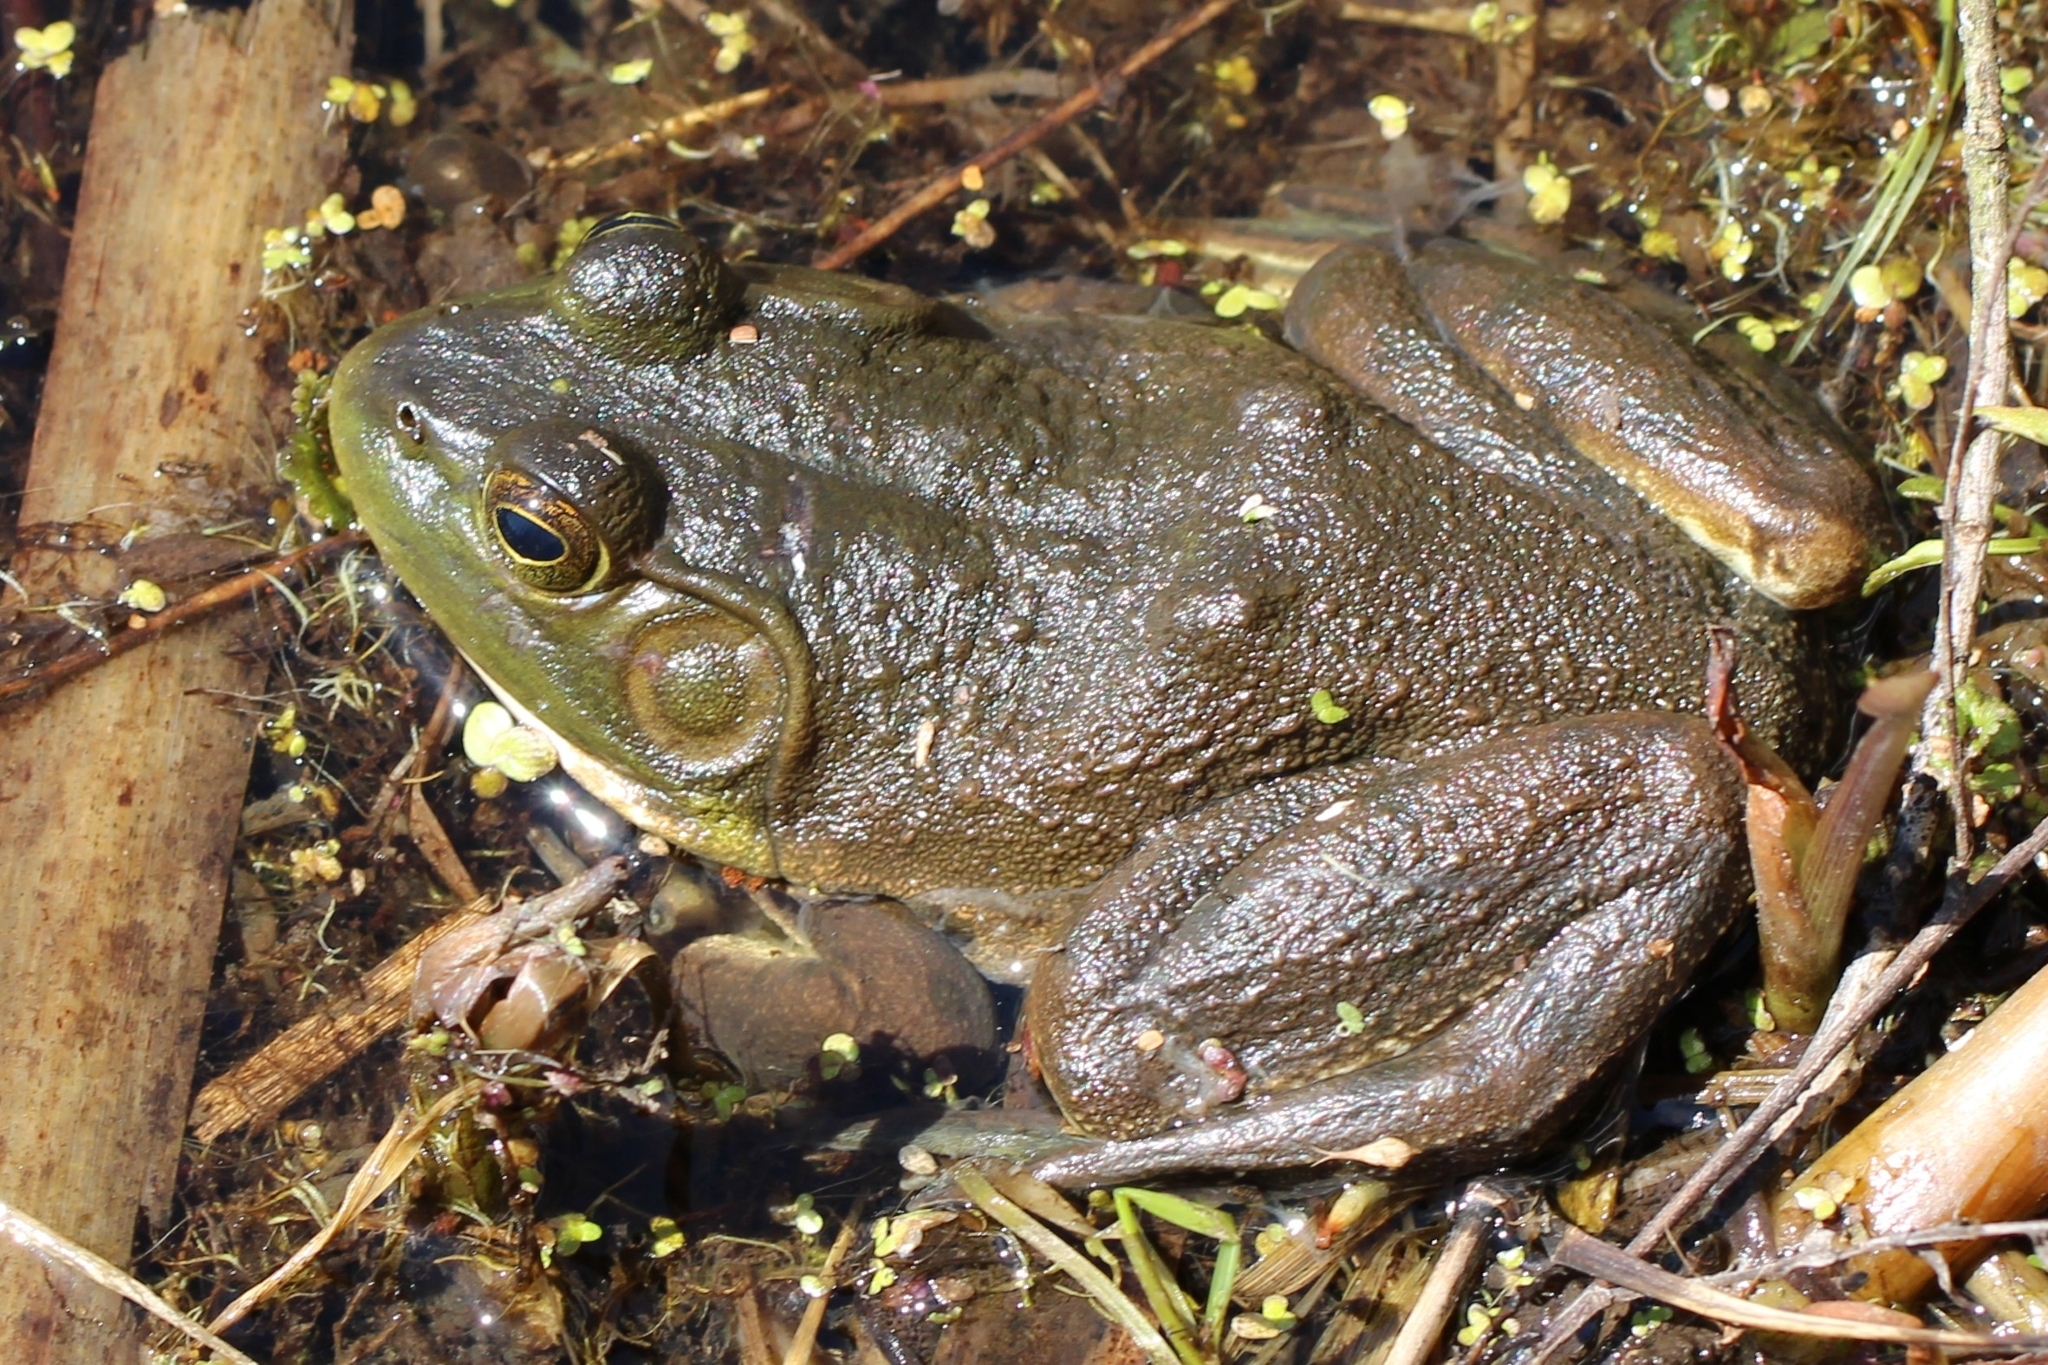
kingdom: Animalia
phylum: Chordata
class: Amphibia
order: Anura
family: Ranidae
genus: Lithobates
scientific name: Lithobates catesbeianus
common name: American bullfrog
